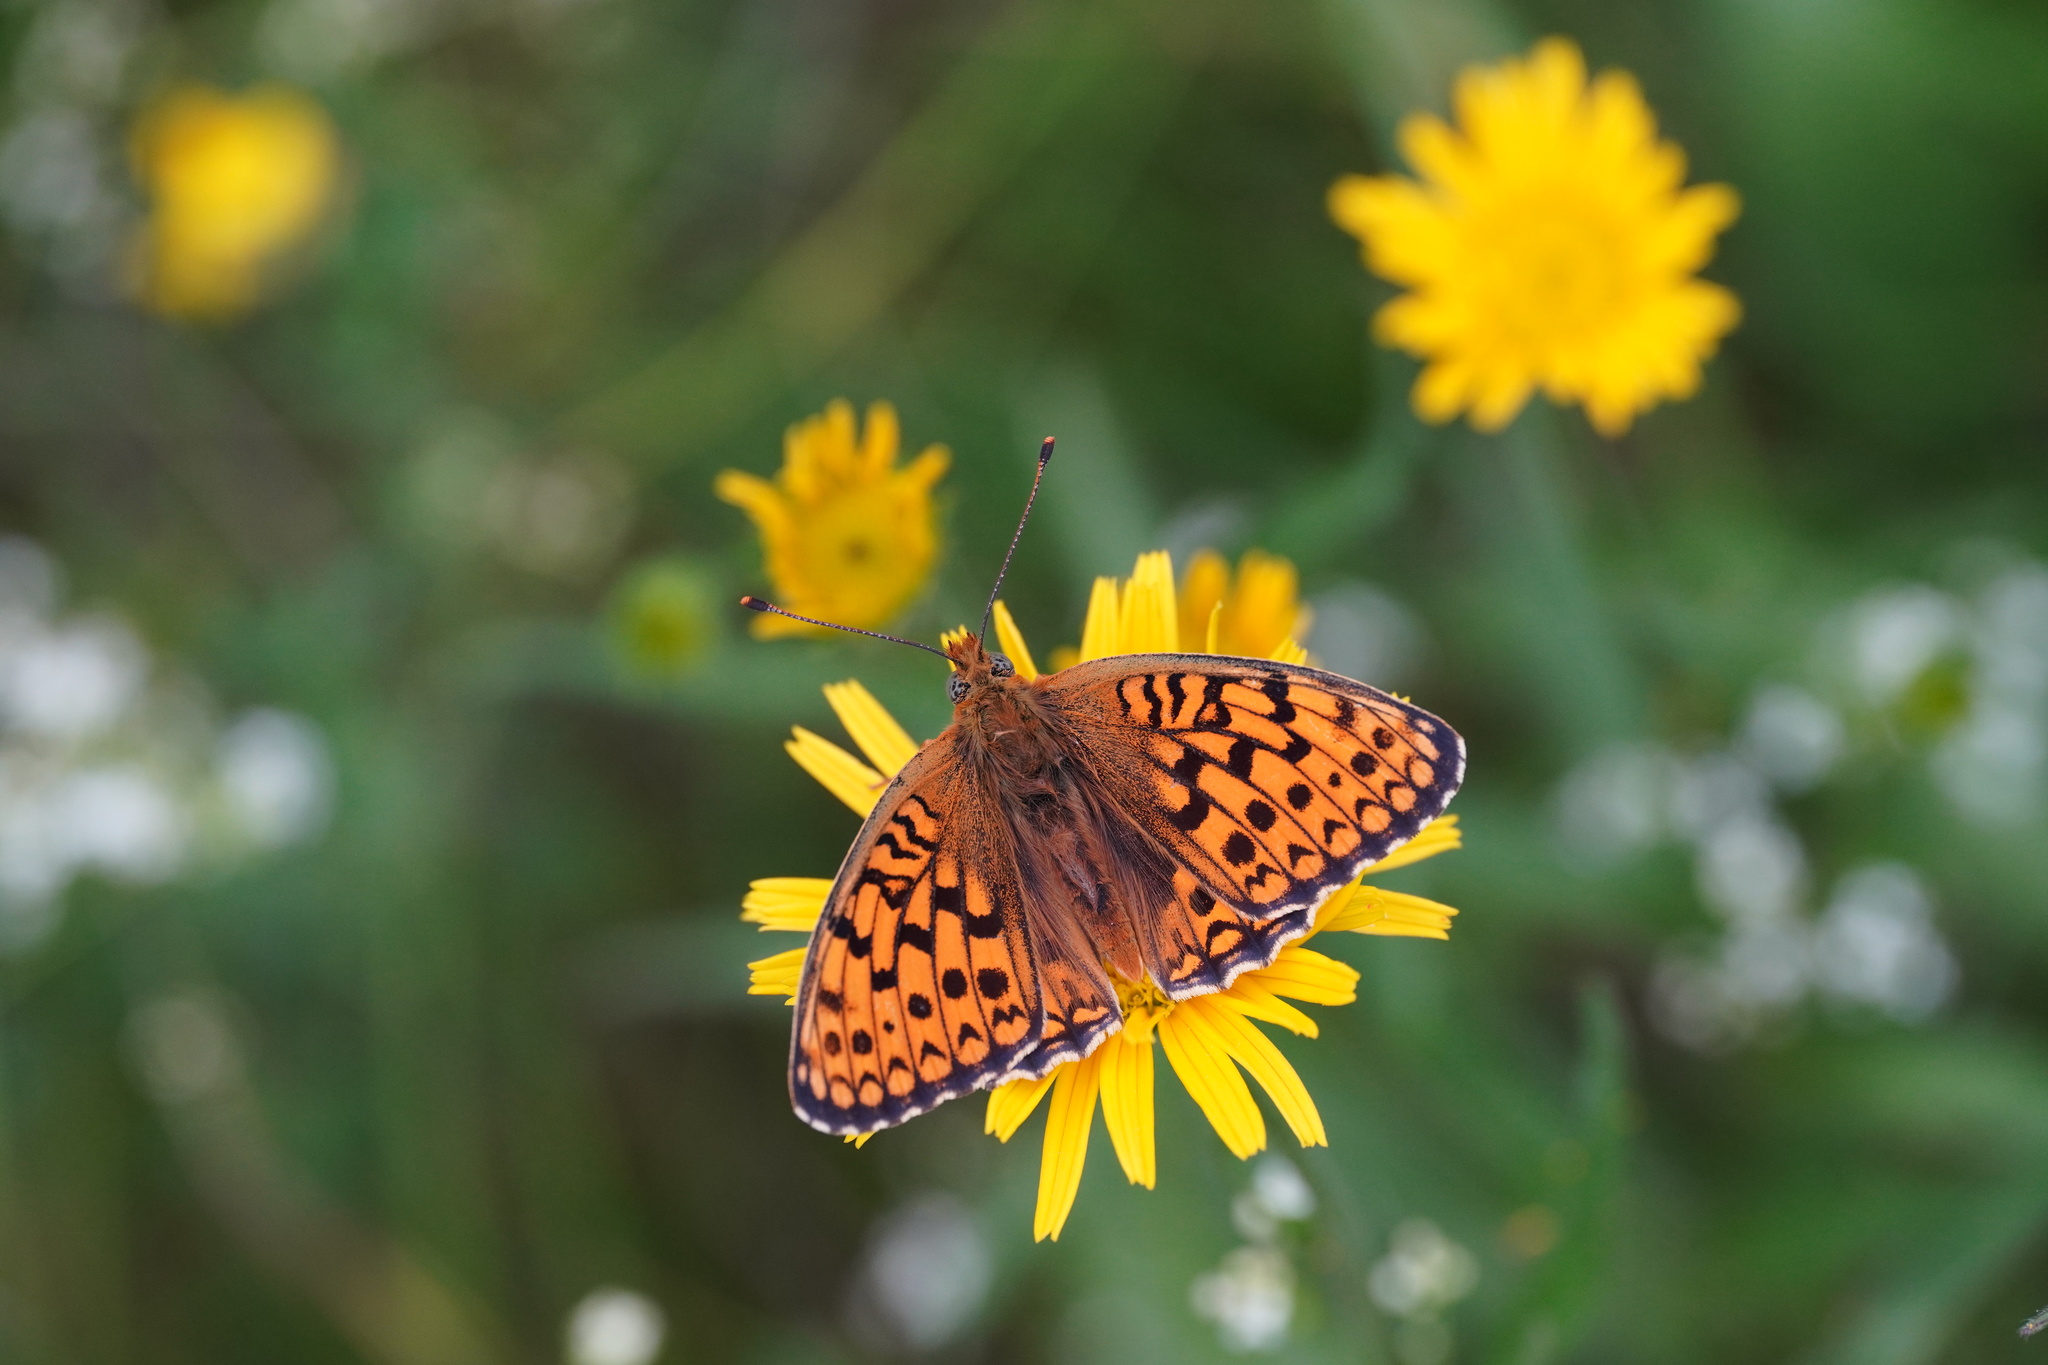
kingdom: Animalia
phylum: Arthropoda
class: Insecta
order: Lepidoptera
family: Nymphalidae
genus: Fabriciana
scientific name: Fabriciana niobe
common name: Niobe fritillary
